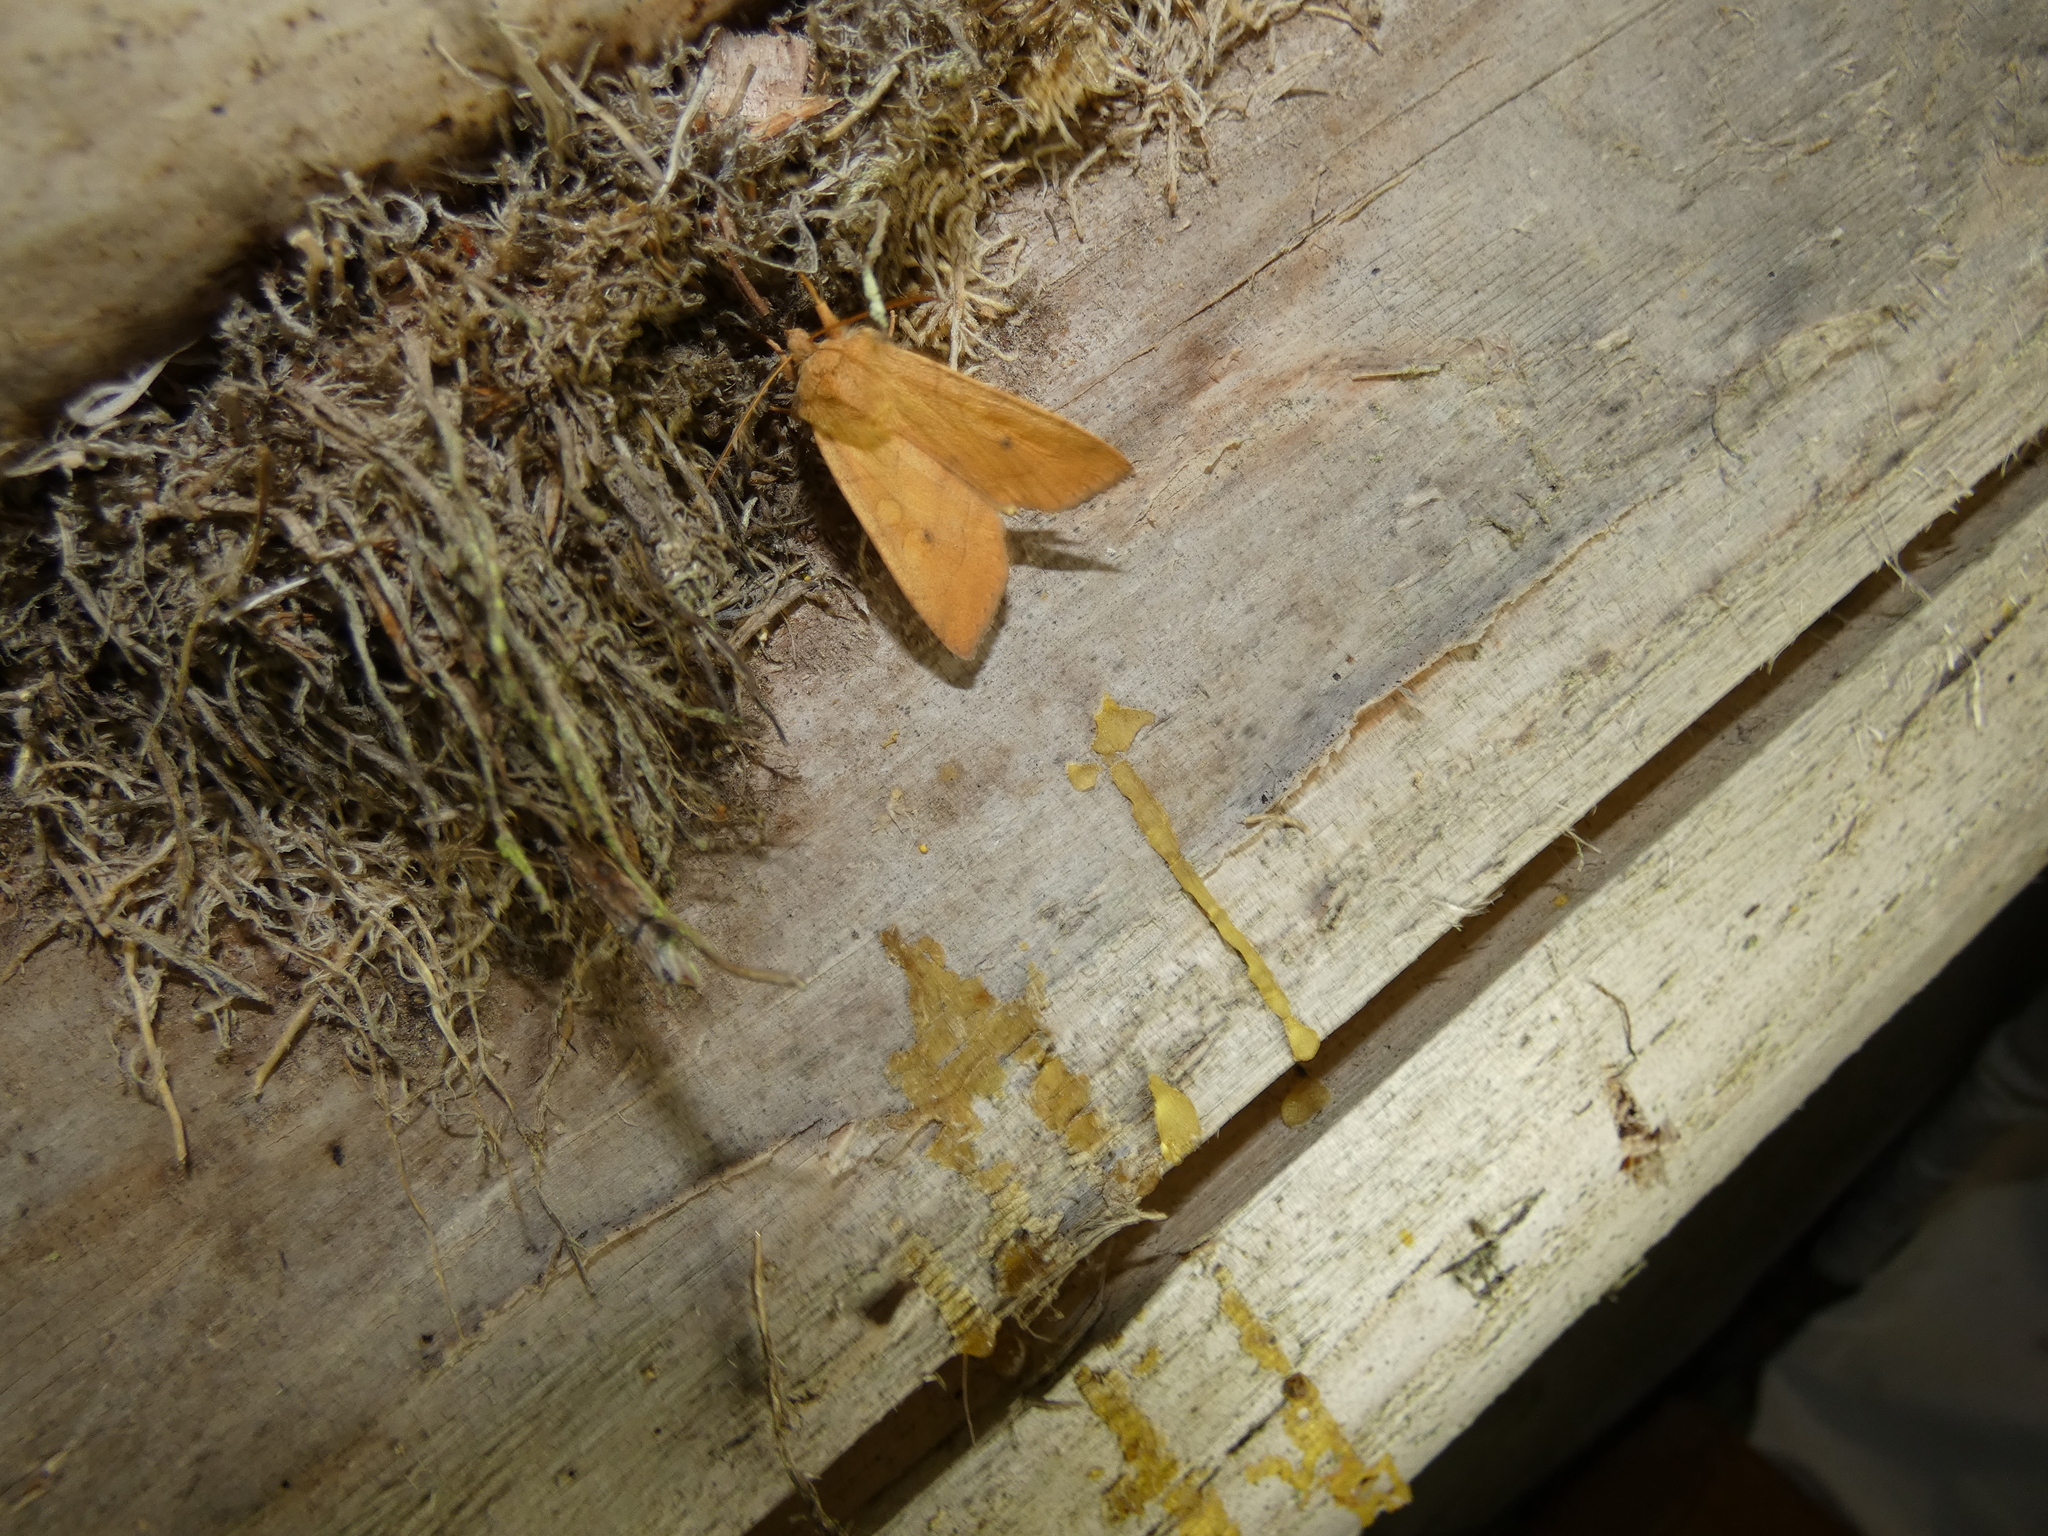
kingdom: Animalia
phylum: Arthropoda
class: Insecta
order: Lepidoptera
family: Noctuidae
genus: Enargia
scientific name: Enargia paleacea
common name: Angle-striped sallow
